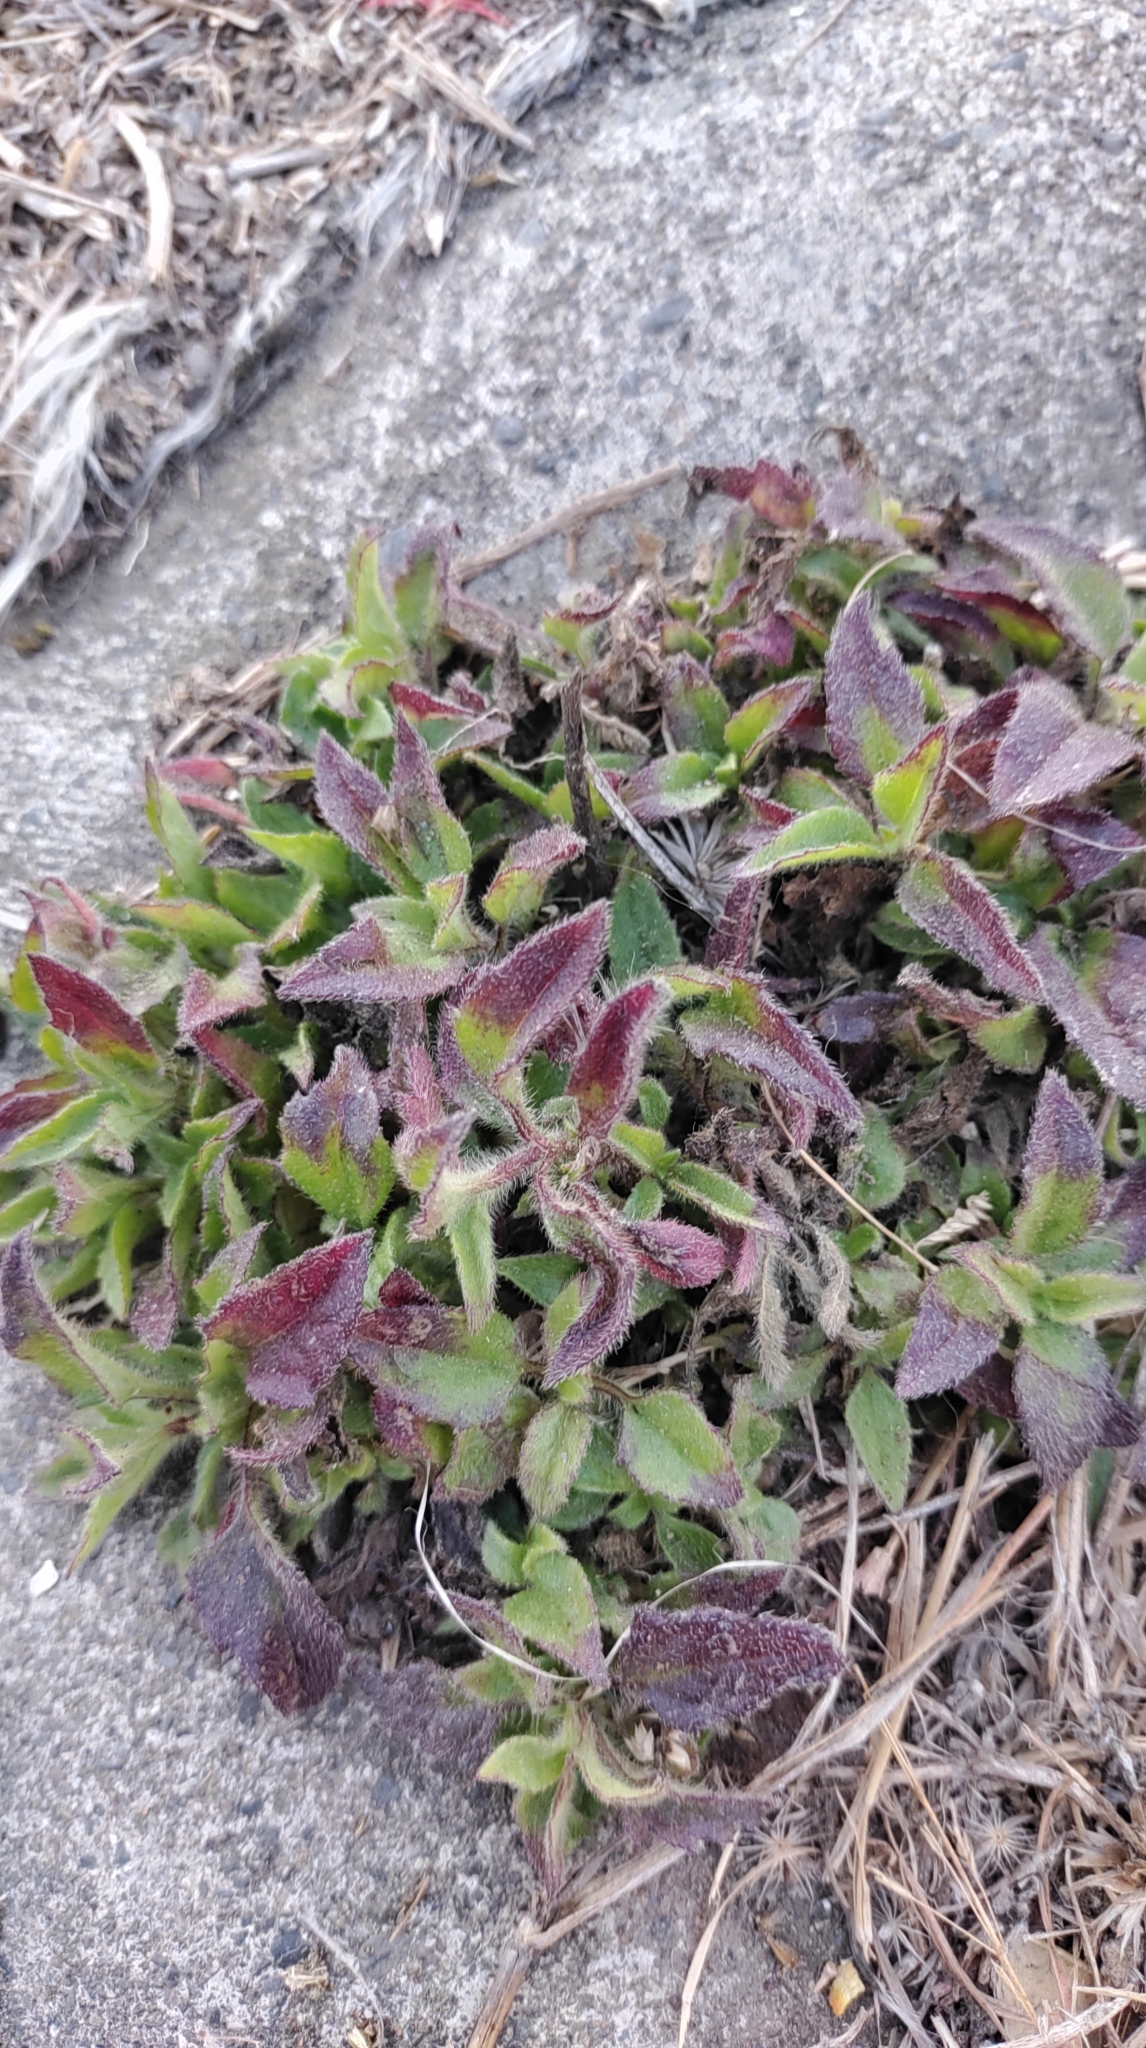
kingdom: Plantae
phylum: Tracheophyta
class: Magnoliopsida
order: Asterales
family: Asteraceae
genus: Tridax
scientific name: Tridax procumbens
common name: Coatbuttons
